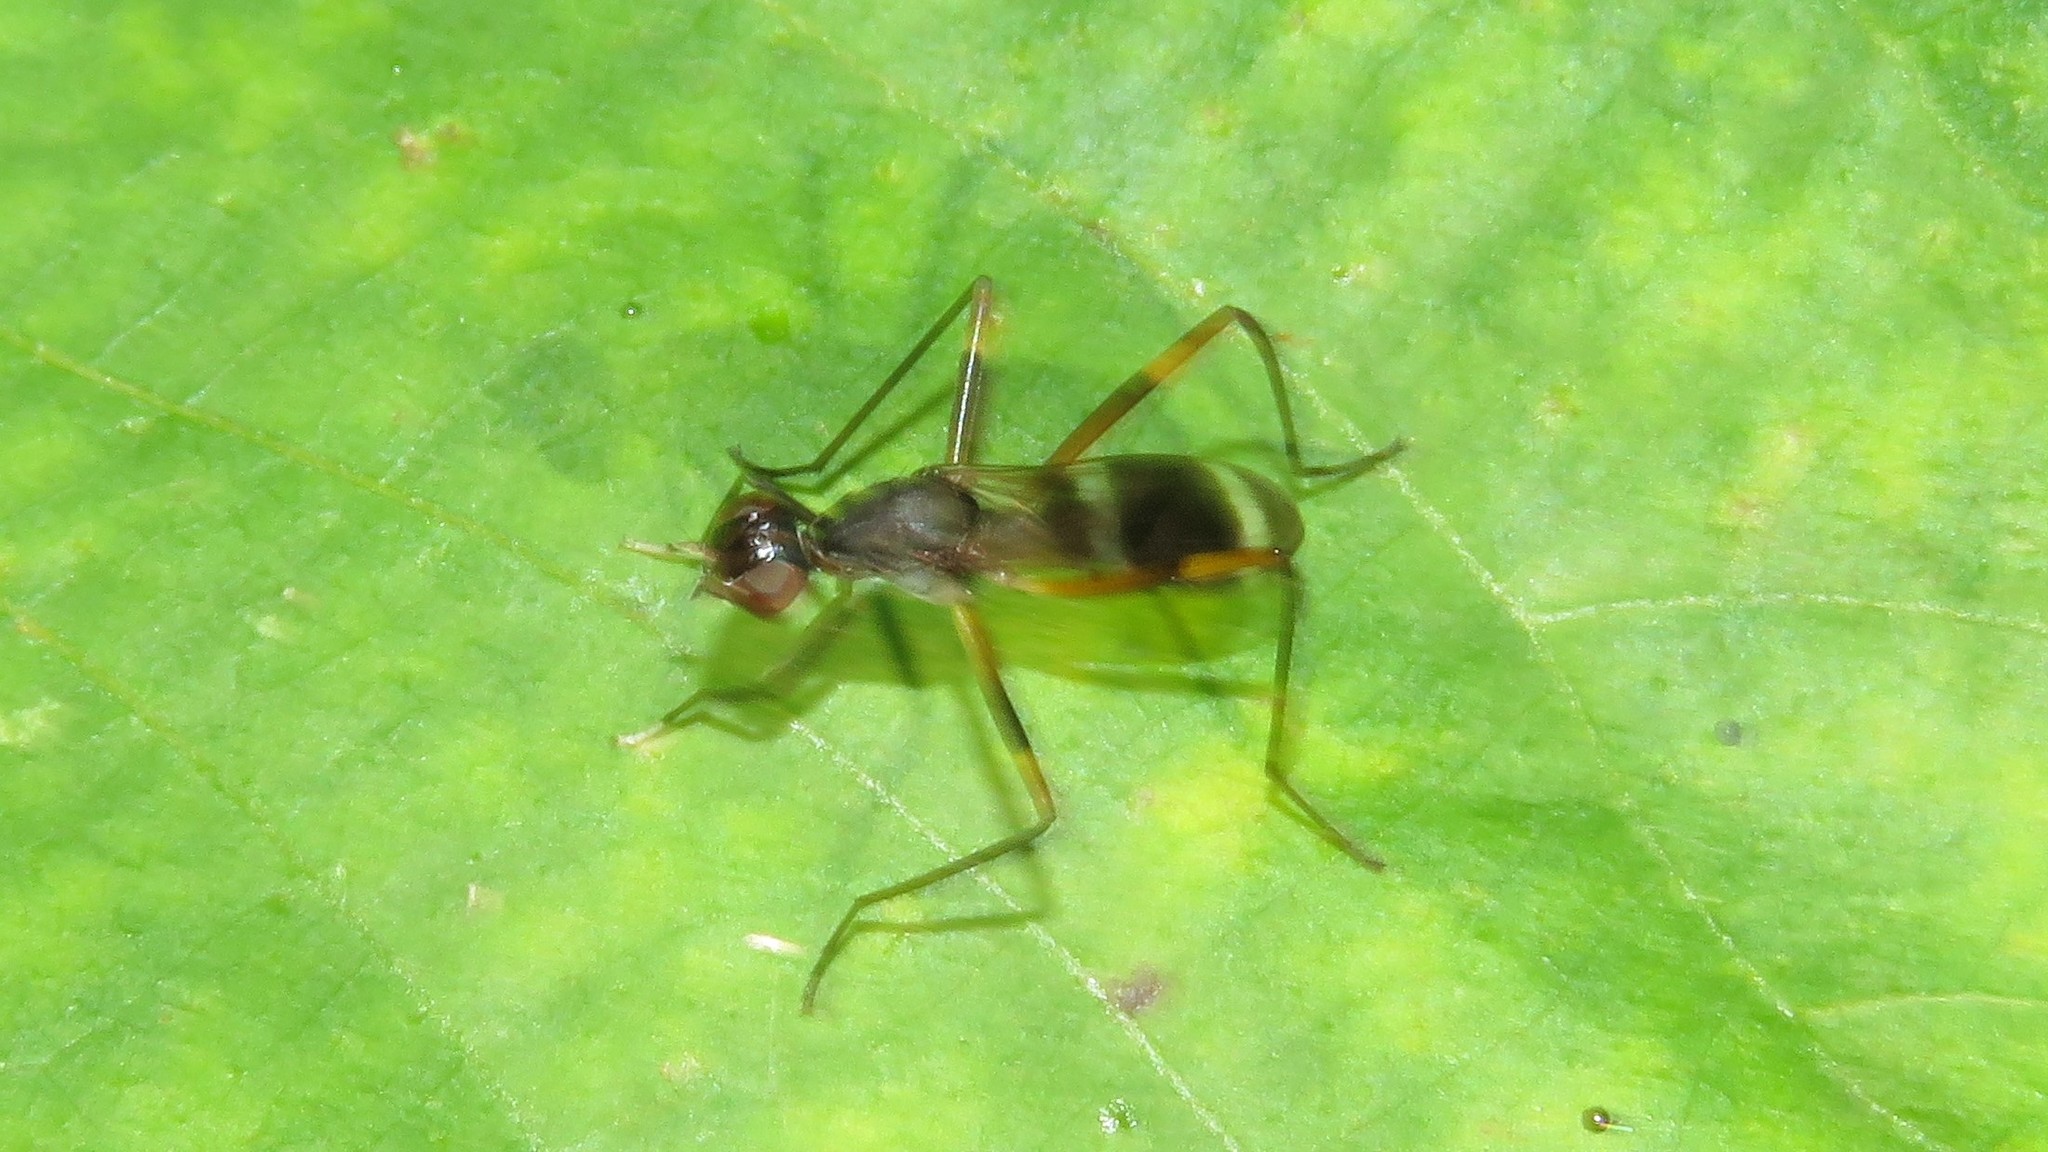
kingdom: Animalia
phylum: Arthropoda
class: Insecta
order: Diptera
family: Micropezidae
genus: Taeniaptera
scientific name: Taeniaptera trivittata
